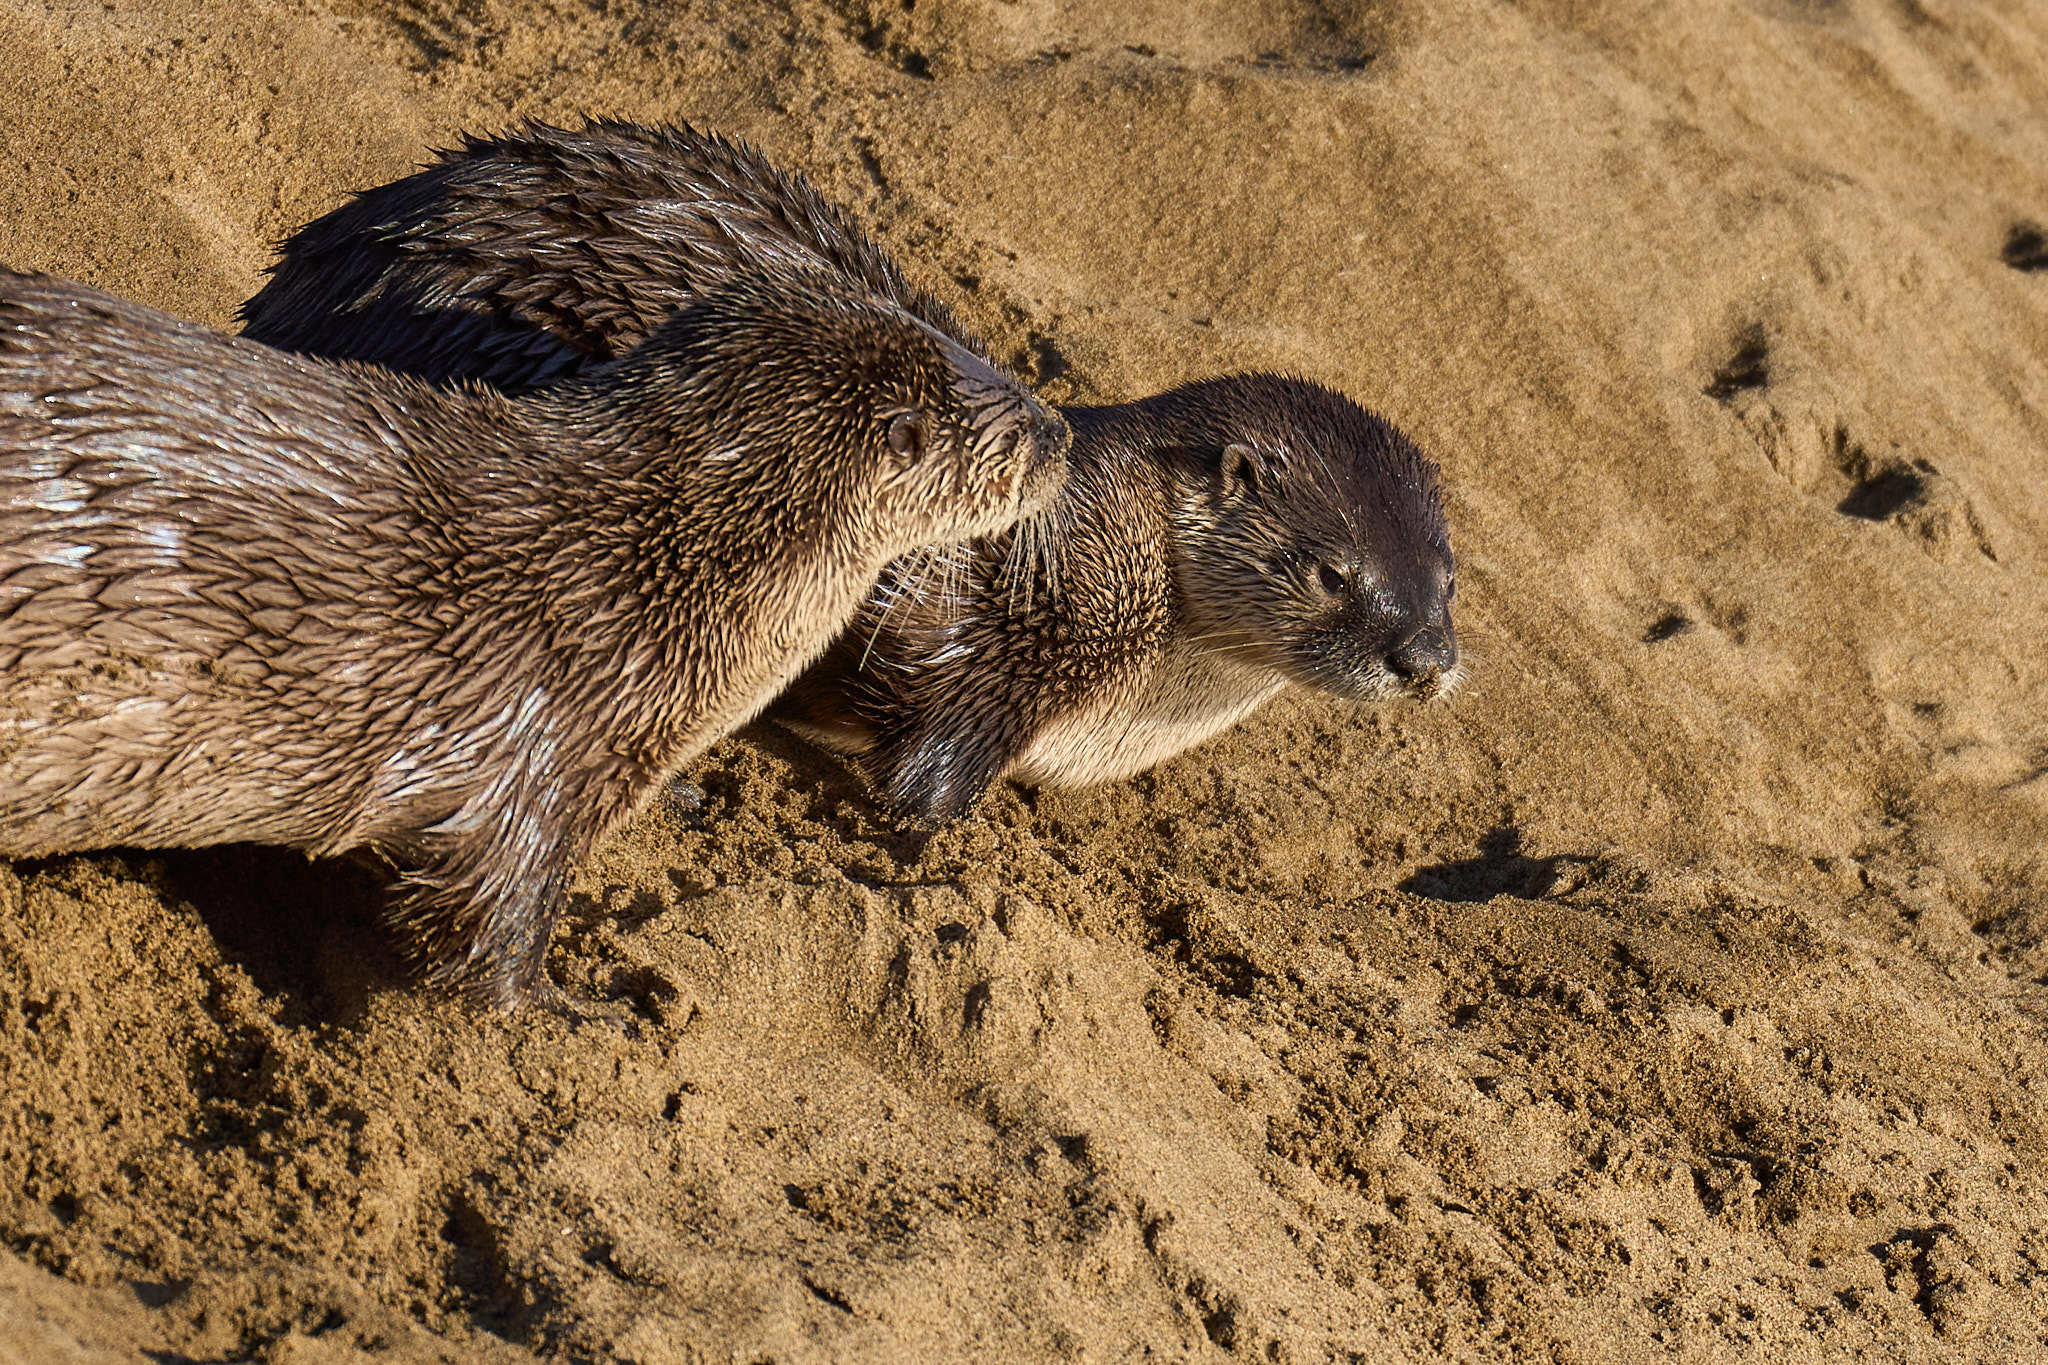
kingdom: Animalia
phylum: Chordata
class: Mammalia
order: Carnivora
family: Mustelidae
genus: Lontra
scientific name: Lontra canadensis
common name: North american river otter
